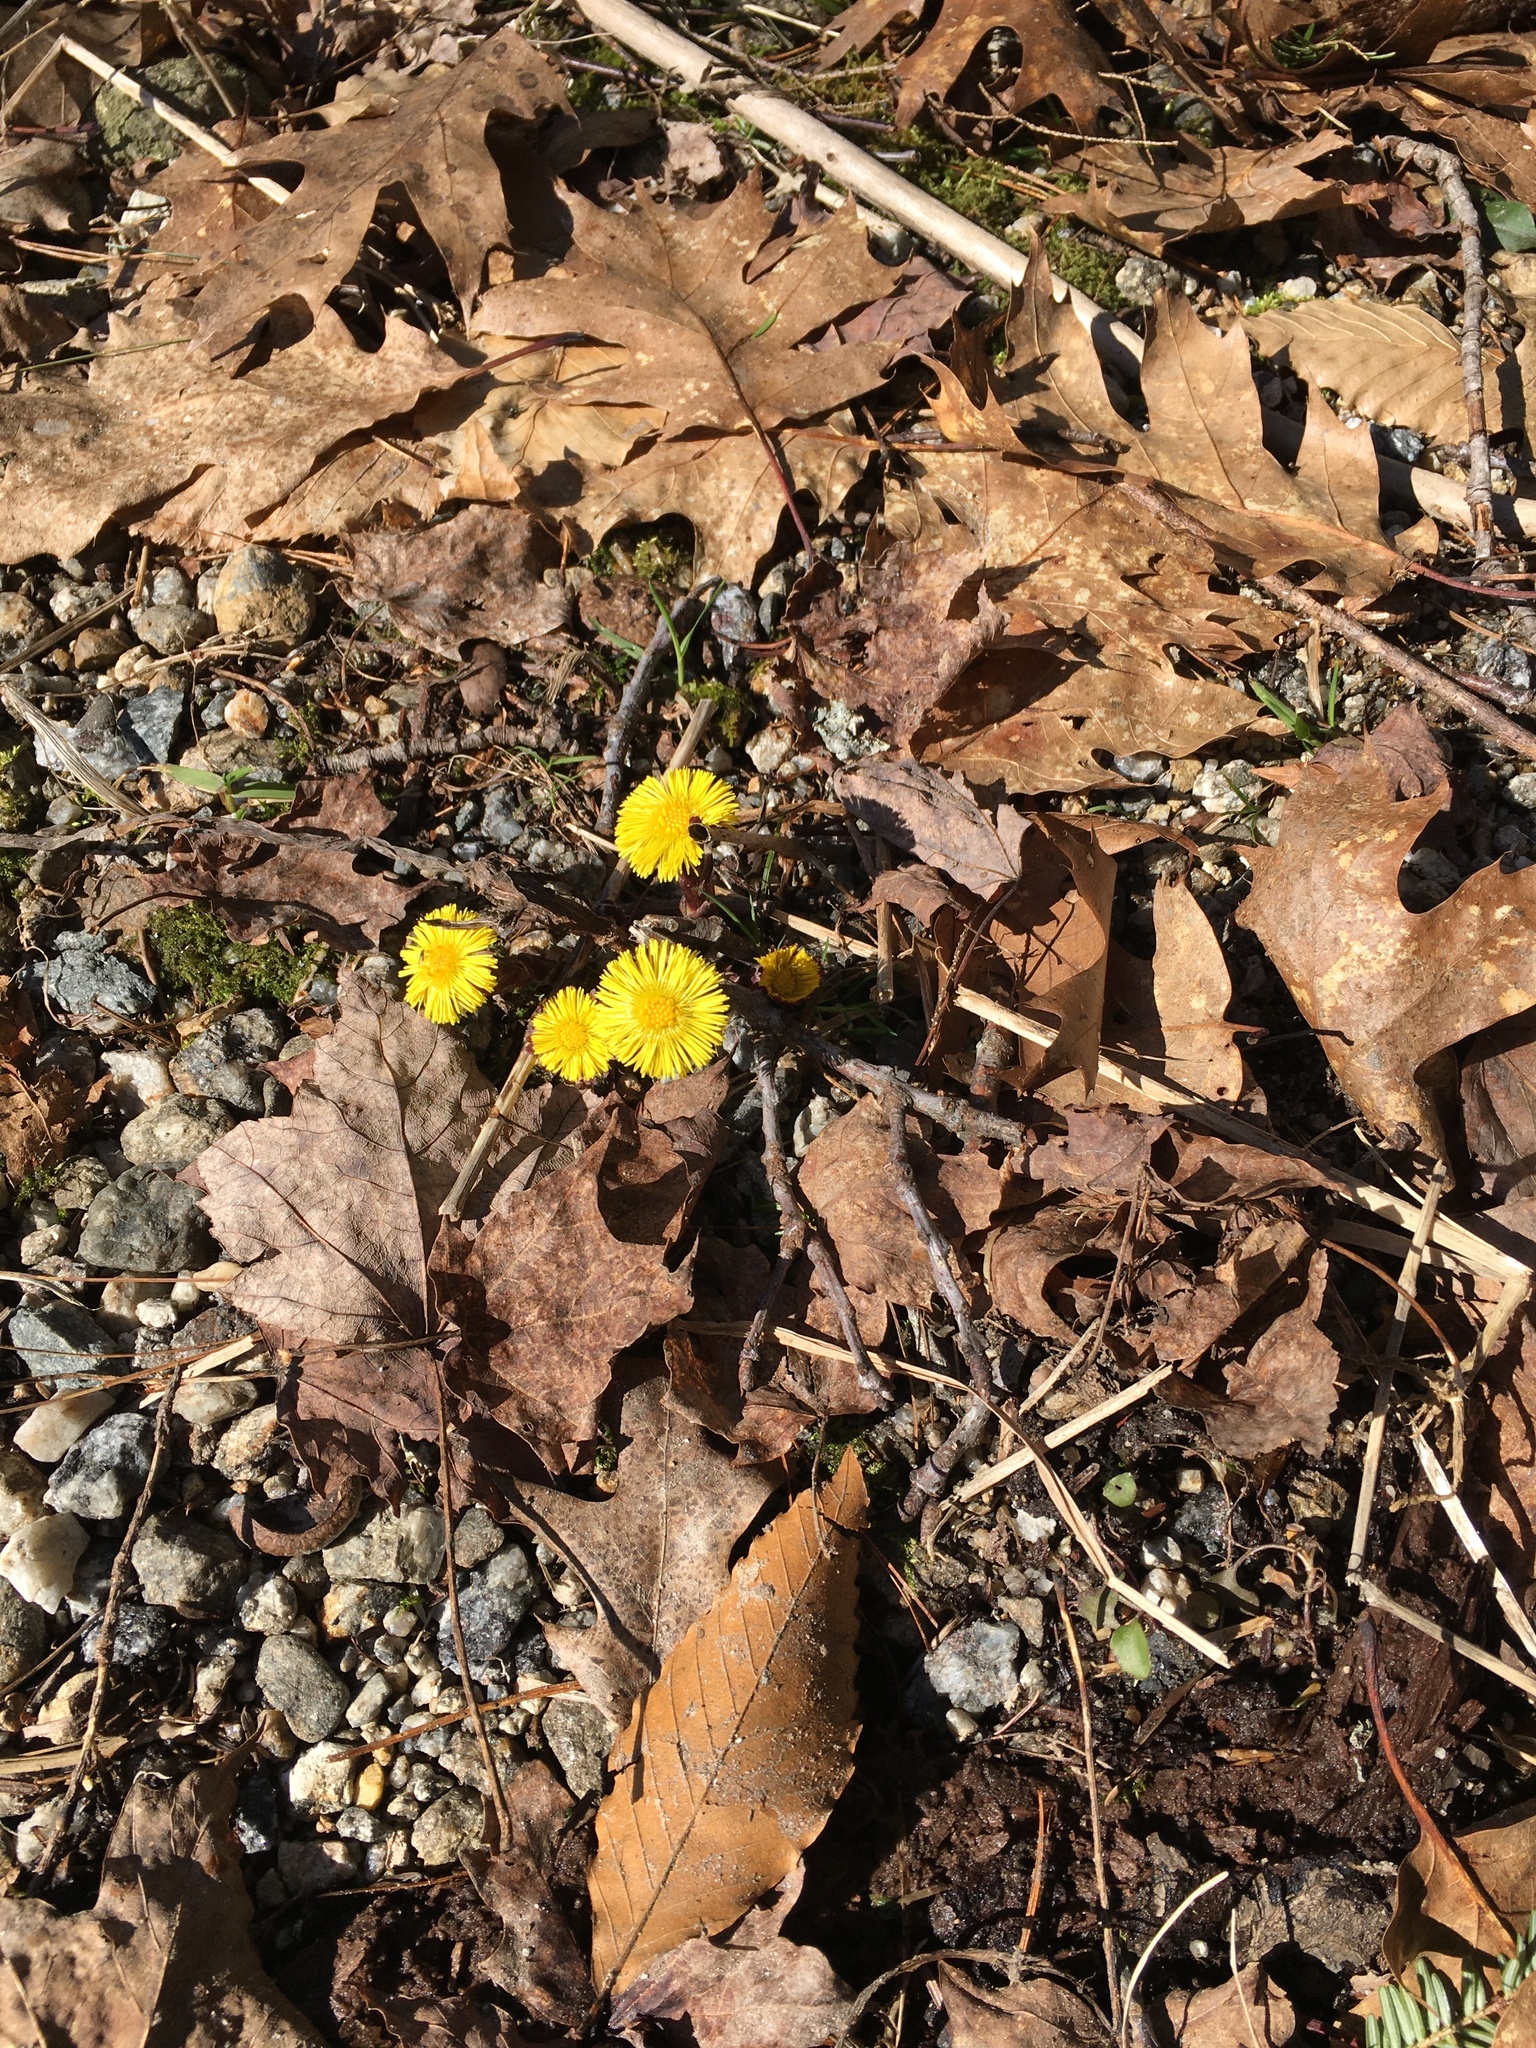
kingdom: Plantae
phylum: Tracheophyta
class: Magnoliopsida
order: Asterales
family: Asteraceae
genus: Tussilago
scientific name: Tussilago farfara
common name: Coltsfoot
